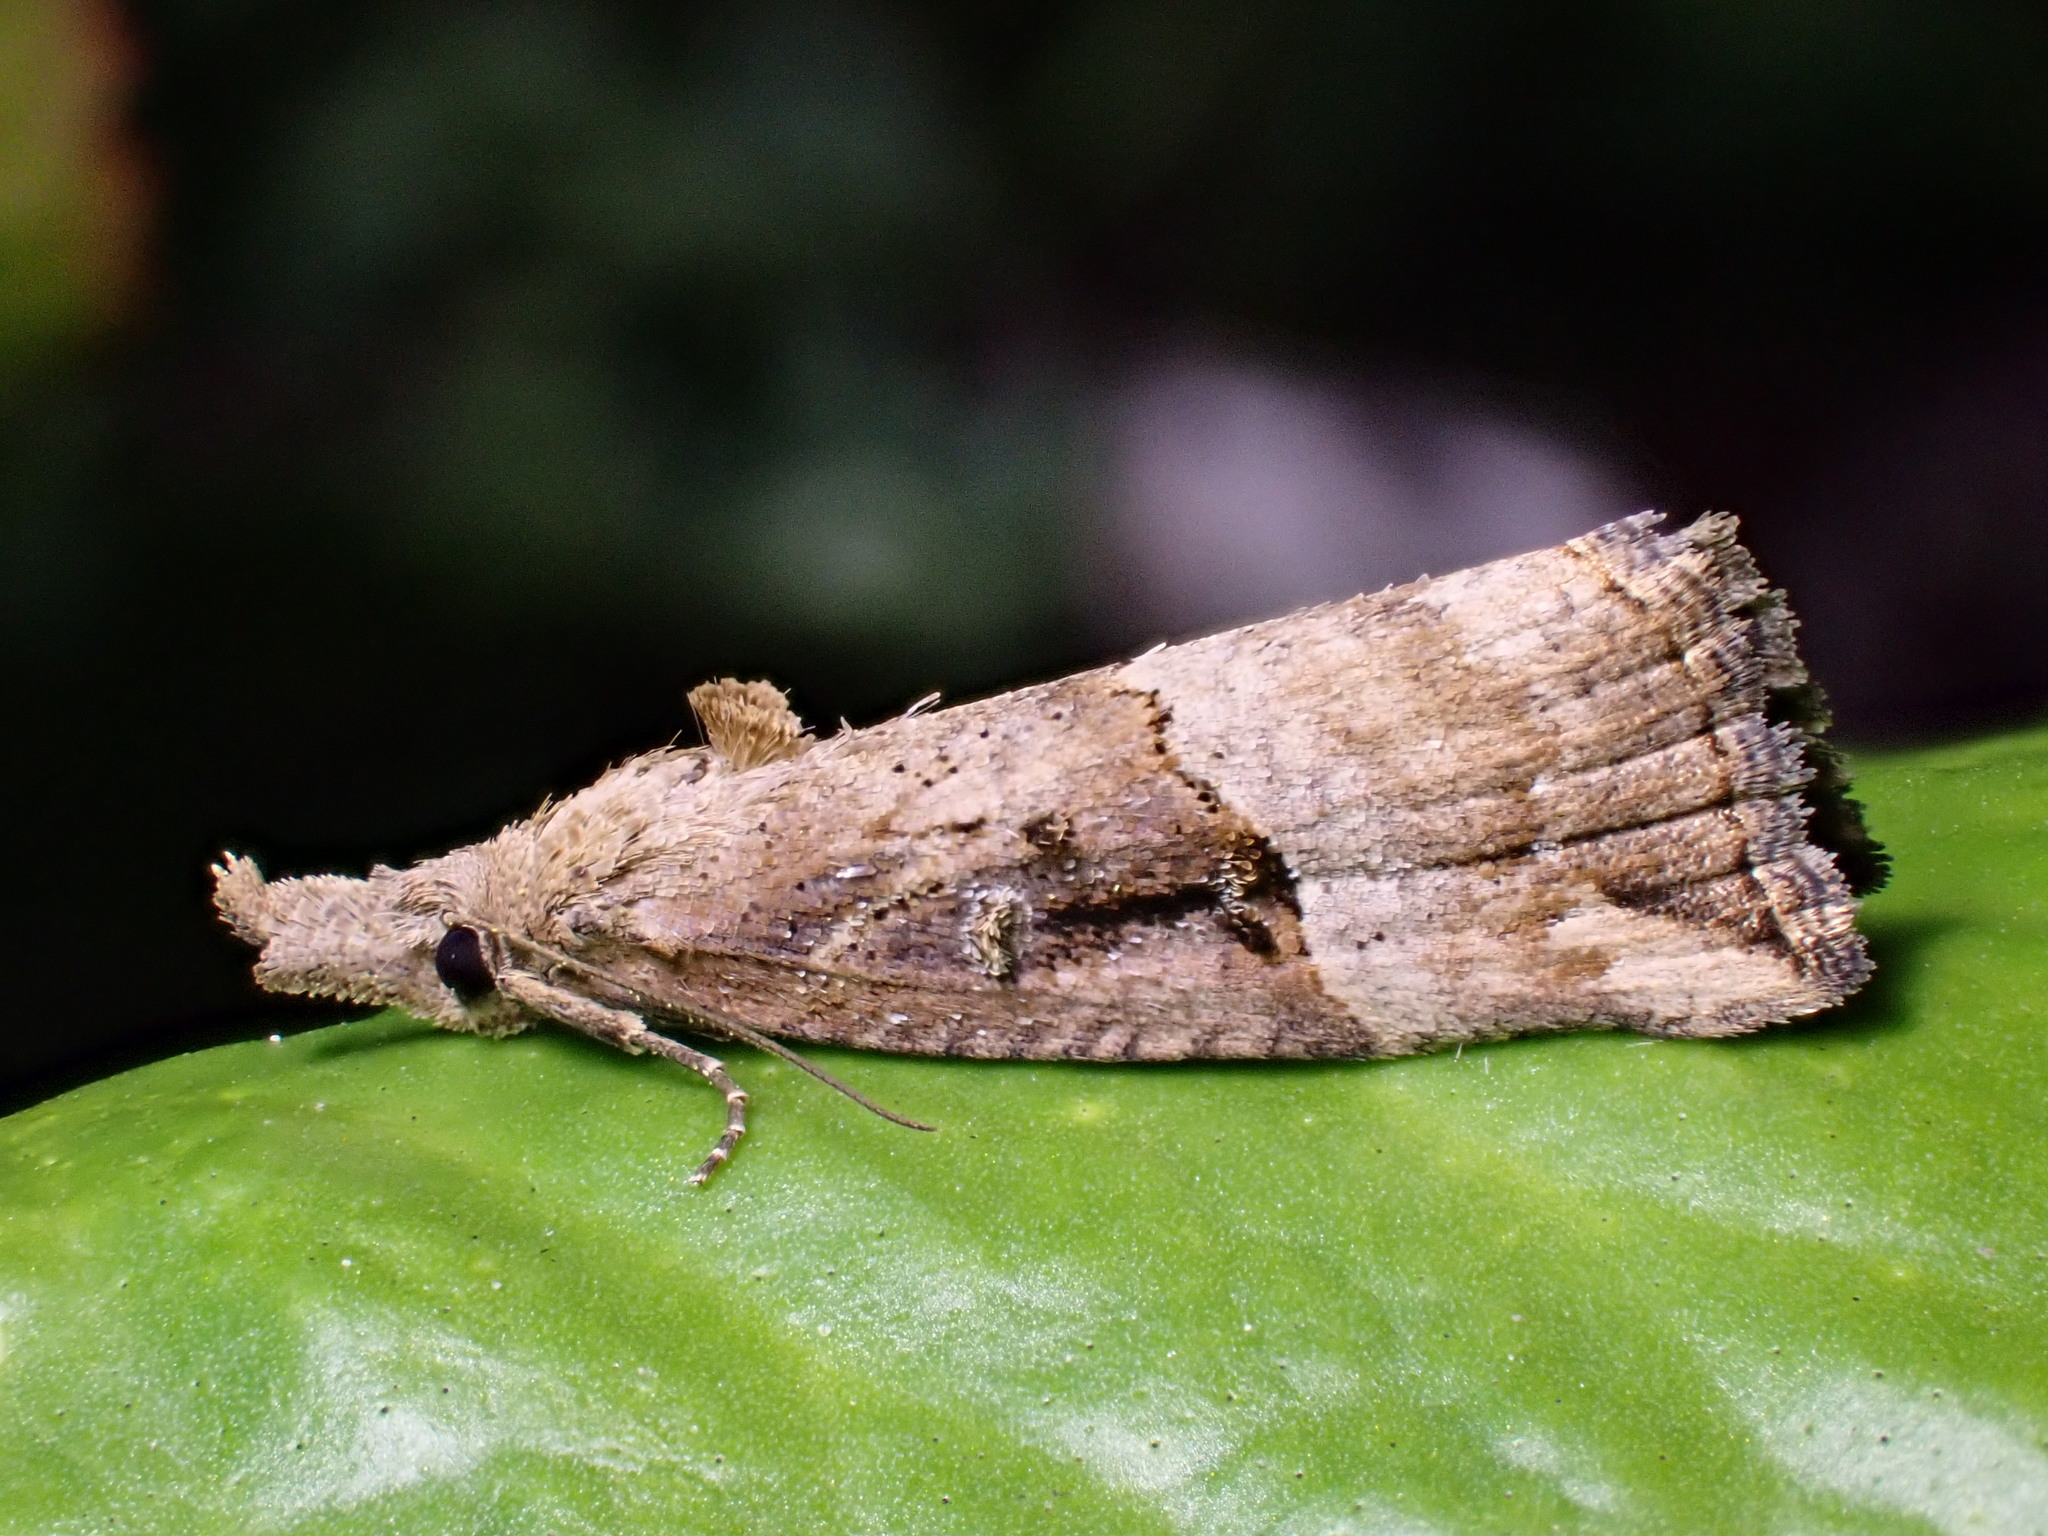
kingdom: Animalia
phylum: Arthropoda
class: Insecta
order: Lepidoptera
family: Erebidae
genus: Hypena
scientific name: Hypena rostralis
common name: Buttoned snout
